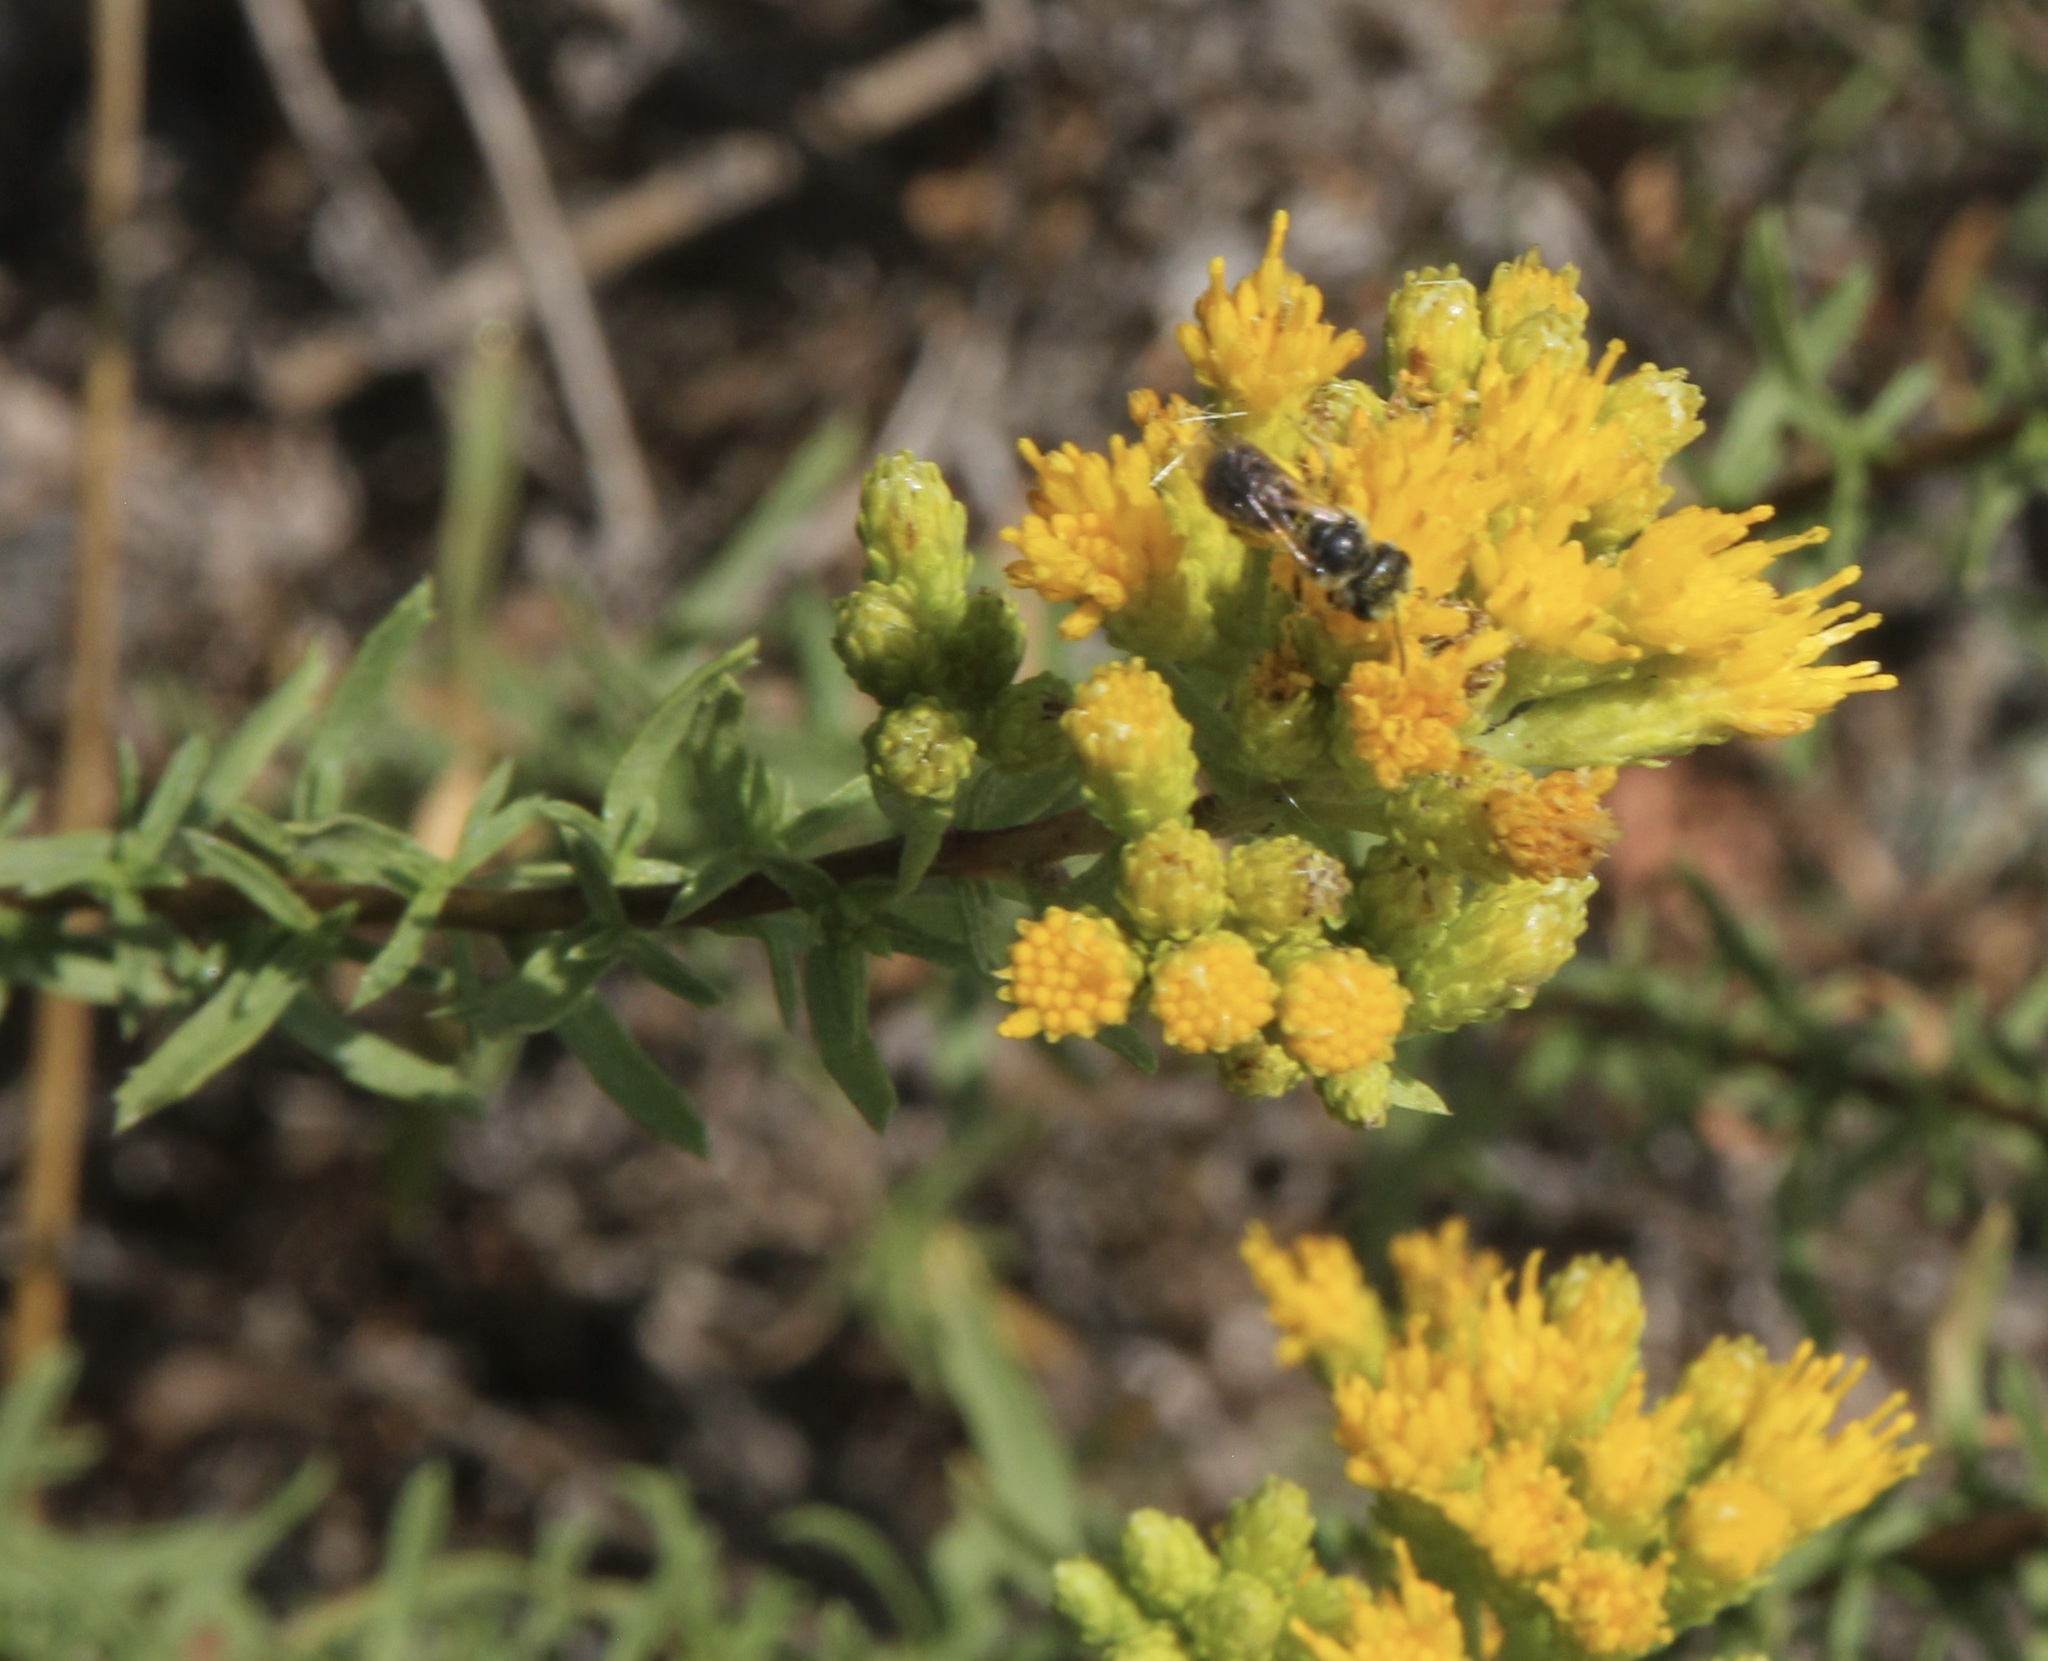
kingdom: Plantae
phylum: Tracheophyta
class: Magnoliopsida
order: Asterales
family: Asteraceae
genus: Isocoma
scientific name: Isocoma menziesii
